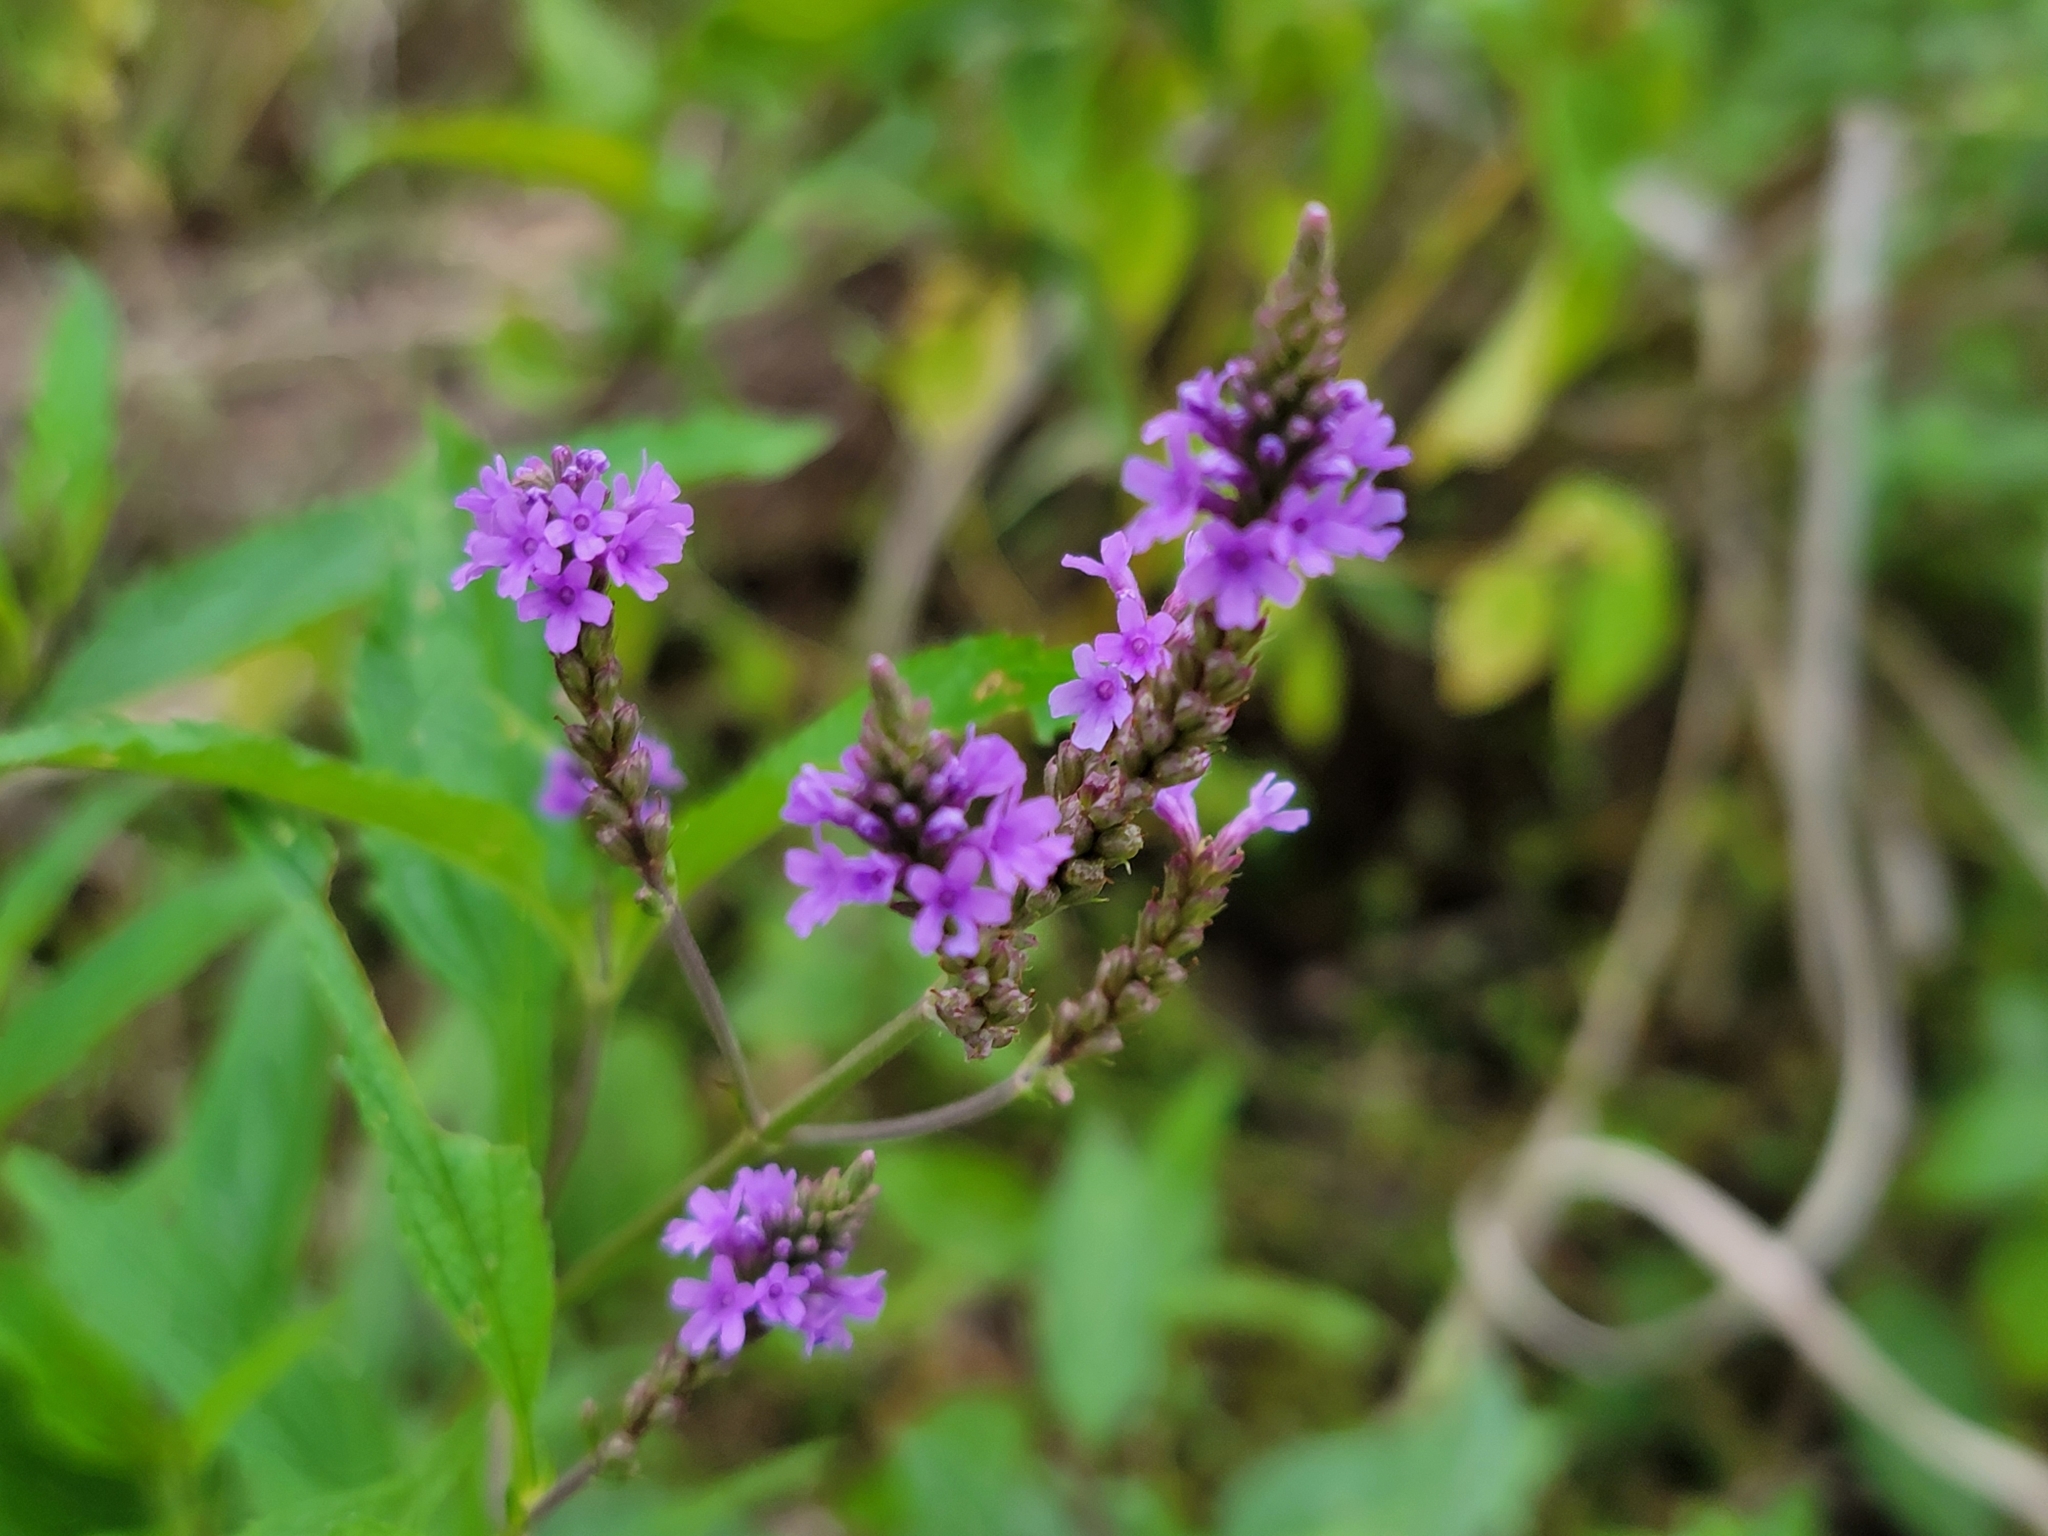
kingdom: Plantae
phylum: Tracheophyta
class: Magnoliopsida
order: Lamiales
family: Verbenaceae
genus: Verbena
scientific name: Verbena hastata
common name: American blue vervain
